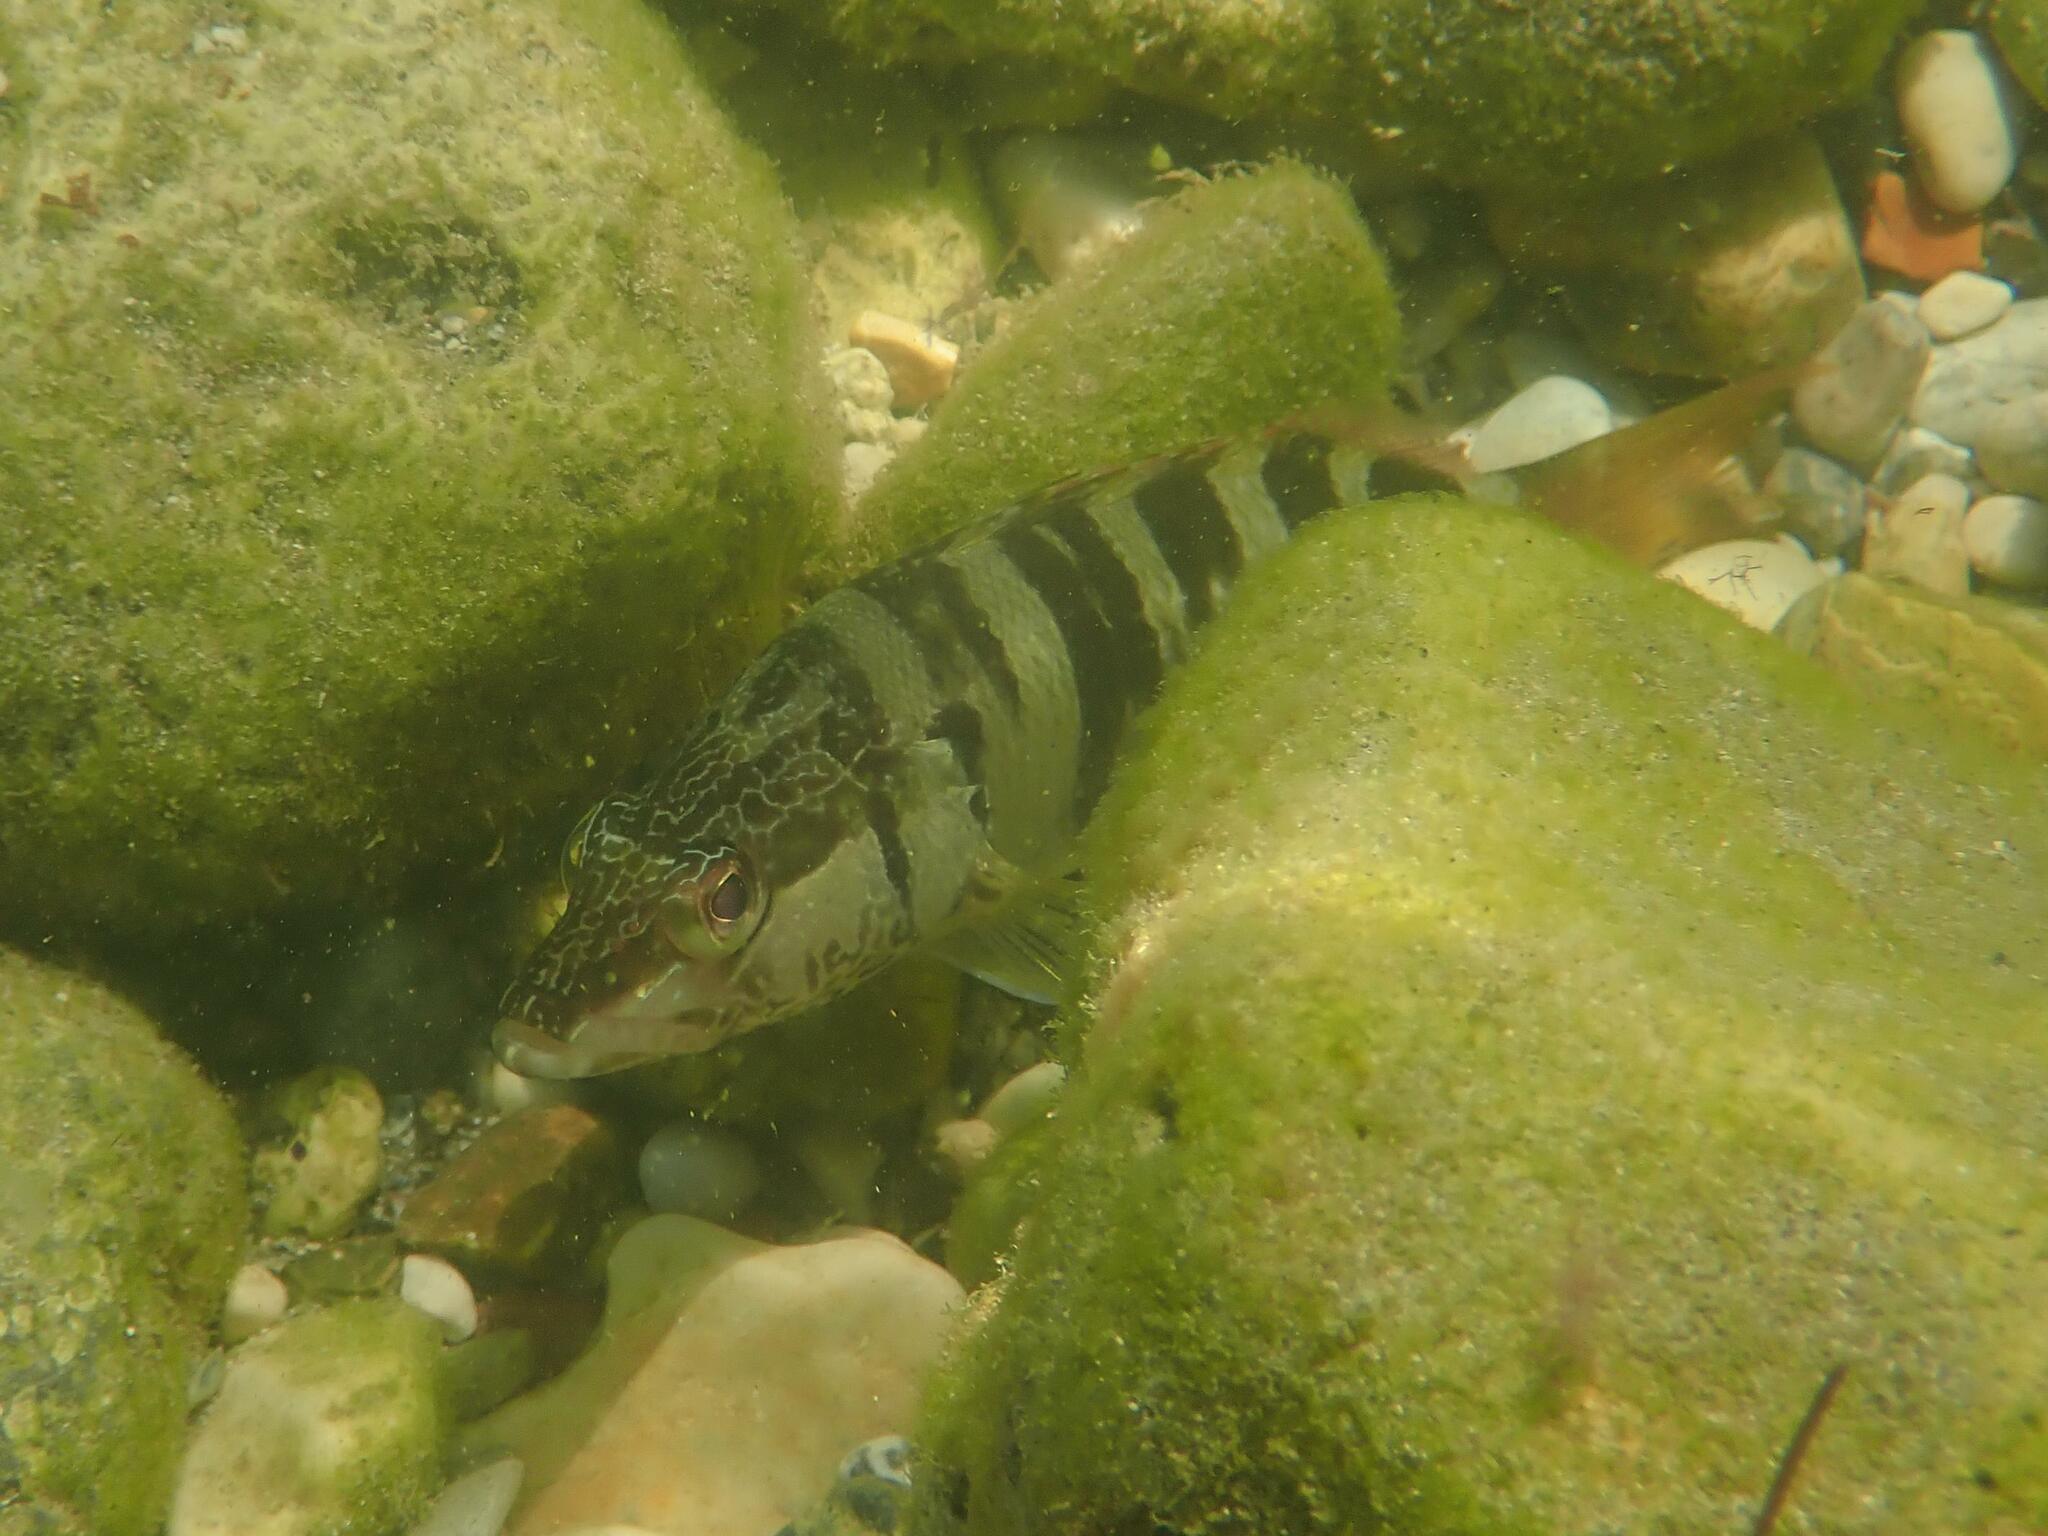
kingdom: Animalia
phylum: Chordata
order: Perciformes
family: Serranidae
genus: Serranus
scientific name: Serranus scriba
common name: Painted comber
